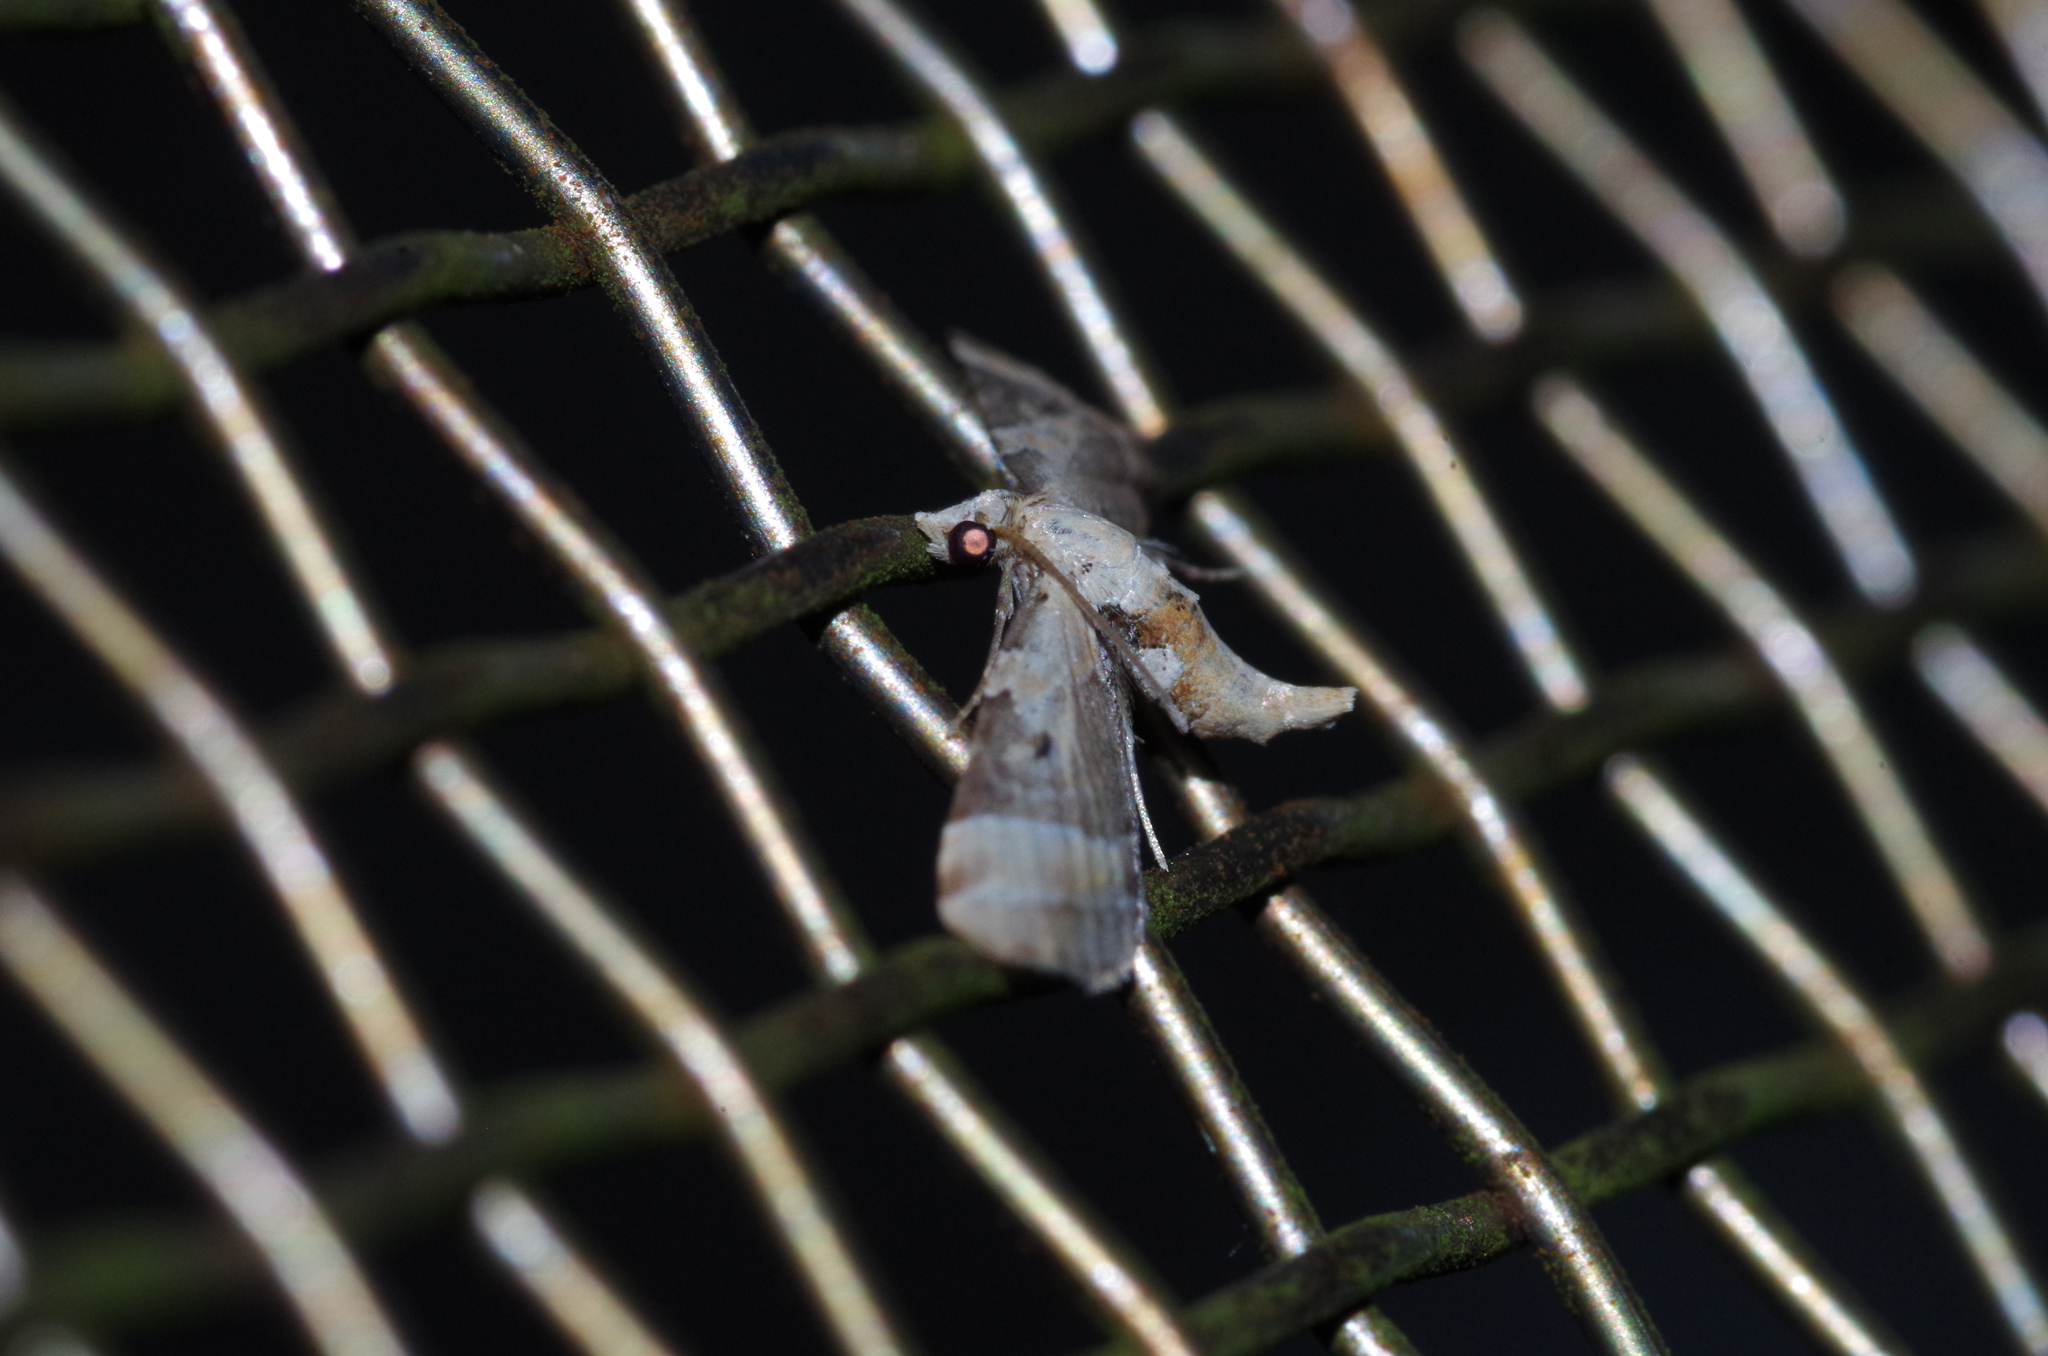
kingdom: Animalia
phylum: Arthropoda
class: Insecta
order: Lepidoptera
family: Geometridae
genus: Eupithecia
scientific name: Eupithecia melanolopha
